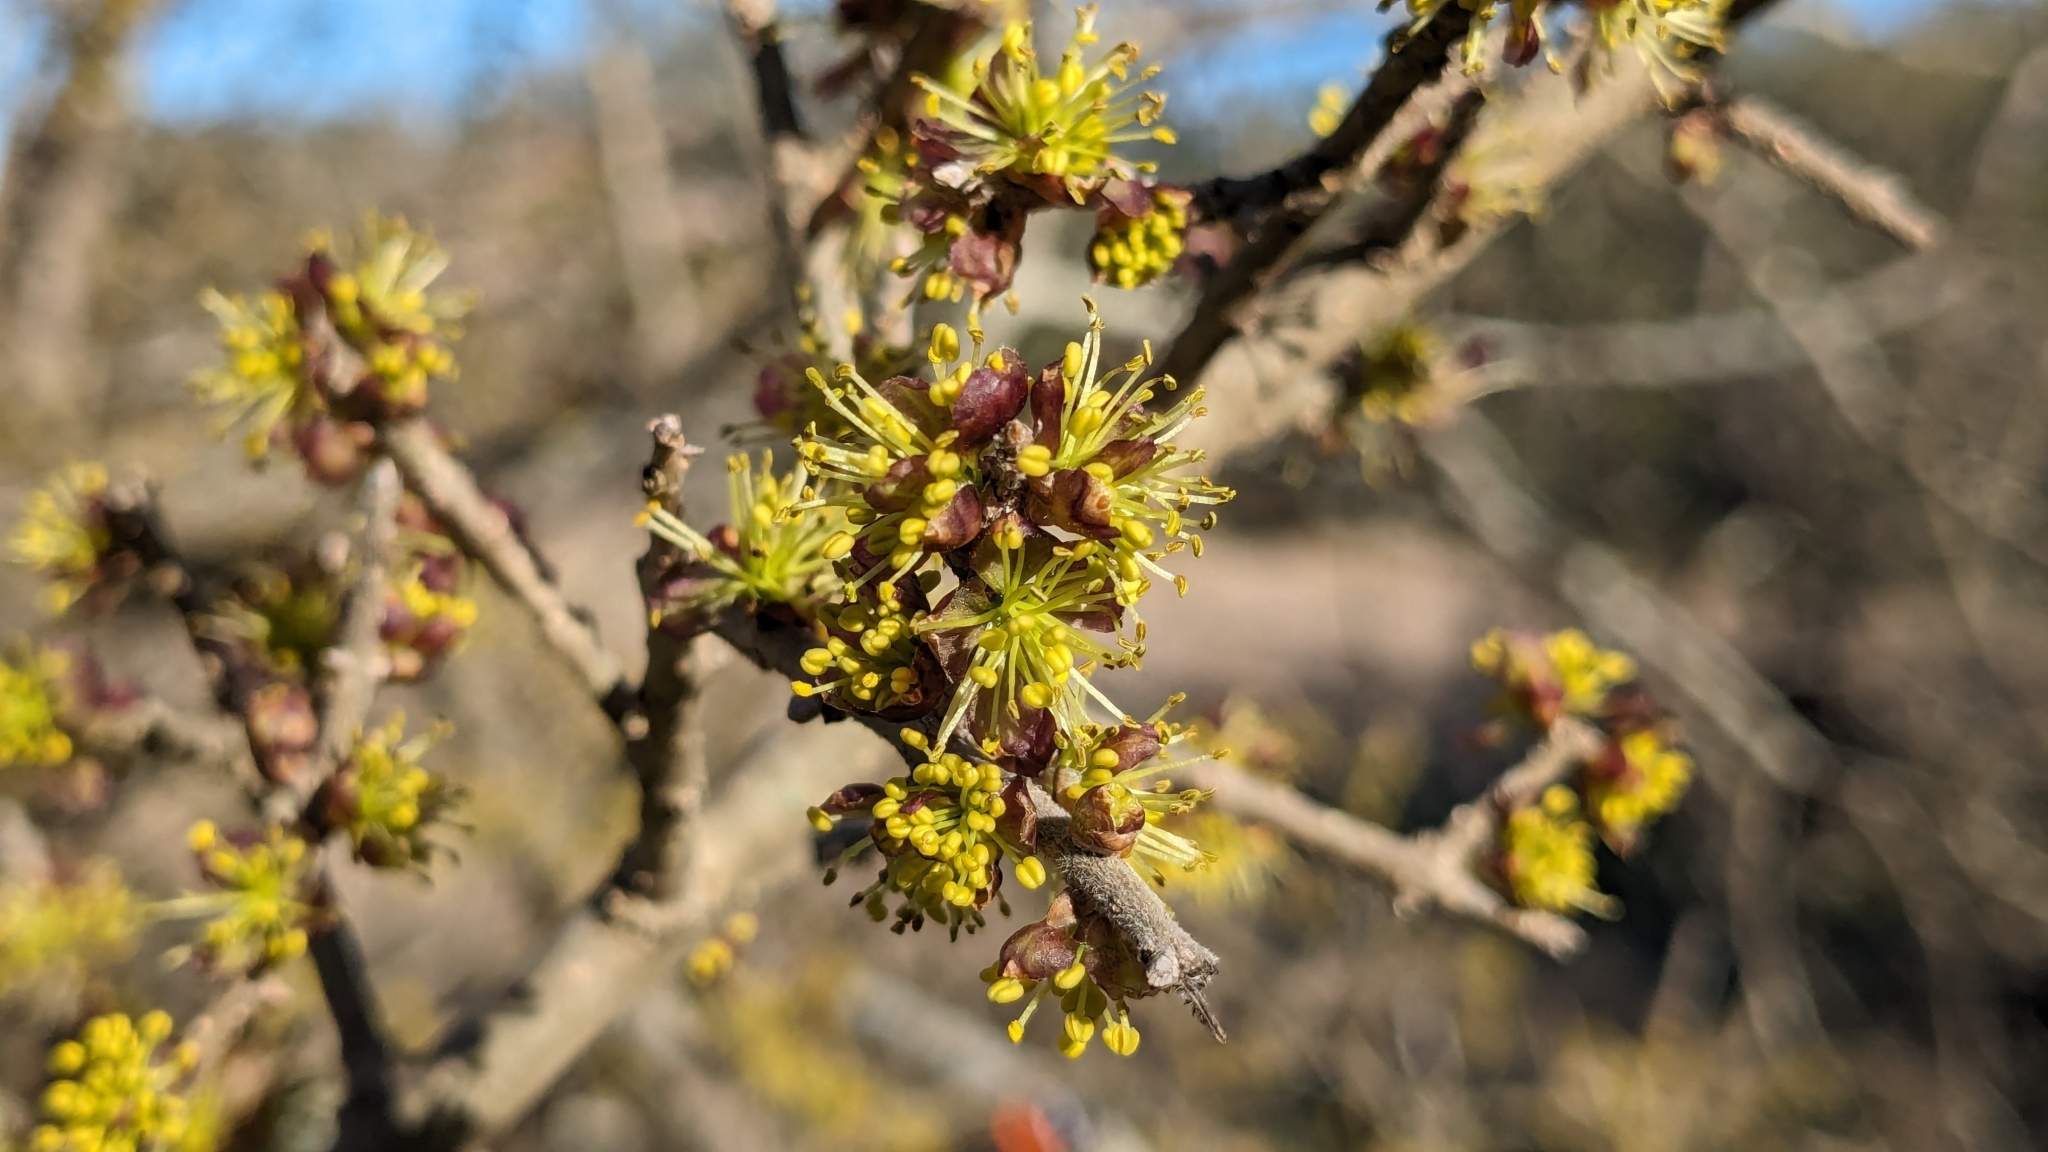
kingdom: Plantae
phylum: Tracheophyta
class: Magnoliopsida
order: Lamiales
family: Oleaceae
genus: Forestiera
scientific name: Forestiera pubescens
